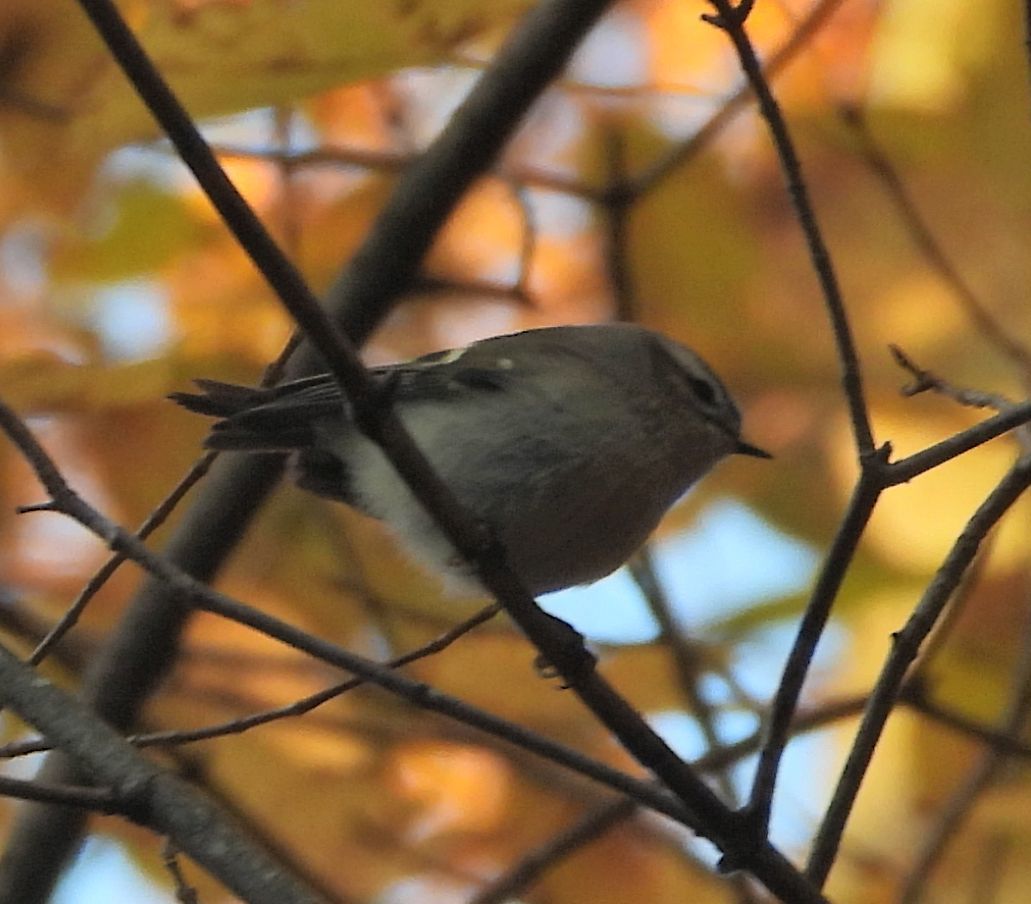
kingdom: Animalia
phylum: Chordata
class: Aves
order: Passeriformes
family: Regulidae
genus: Regulus
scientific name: Regulus satrapa
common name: Golden-crowned kinglet
